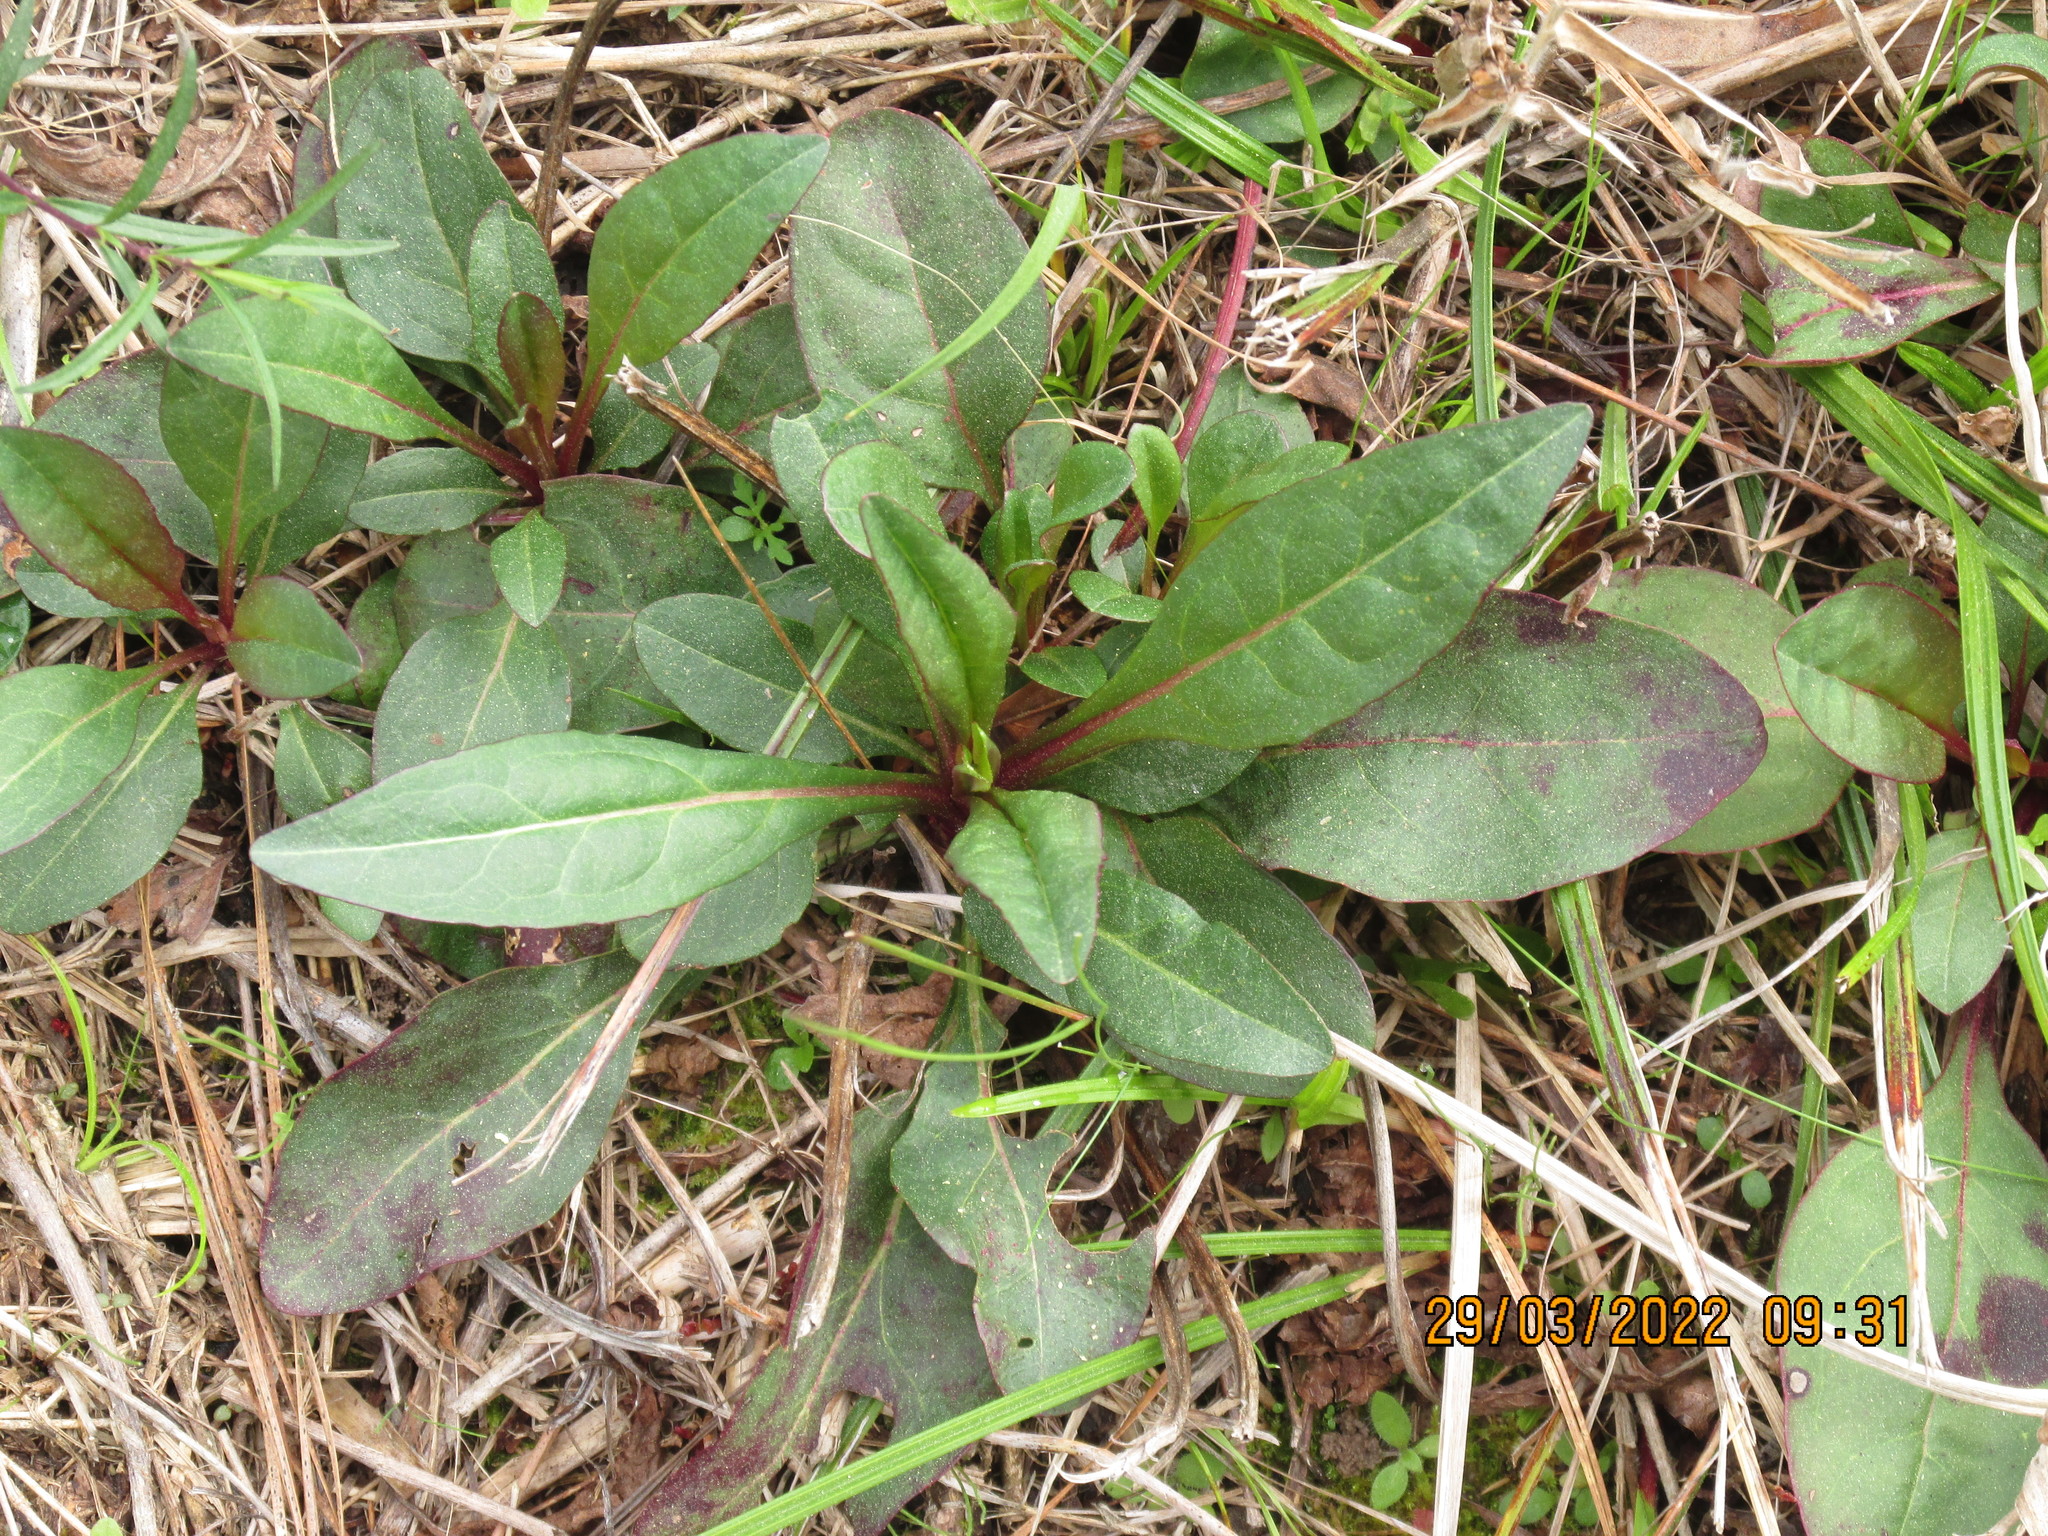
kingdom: Plantae
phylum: Tracheophyta
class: Magnoliopsida
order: Lamiales
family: Plantaginaceae
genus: Penstemon
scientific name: Penstemon tubaeflorus
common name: White wand beardtongue
